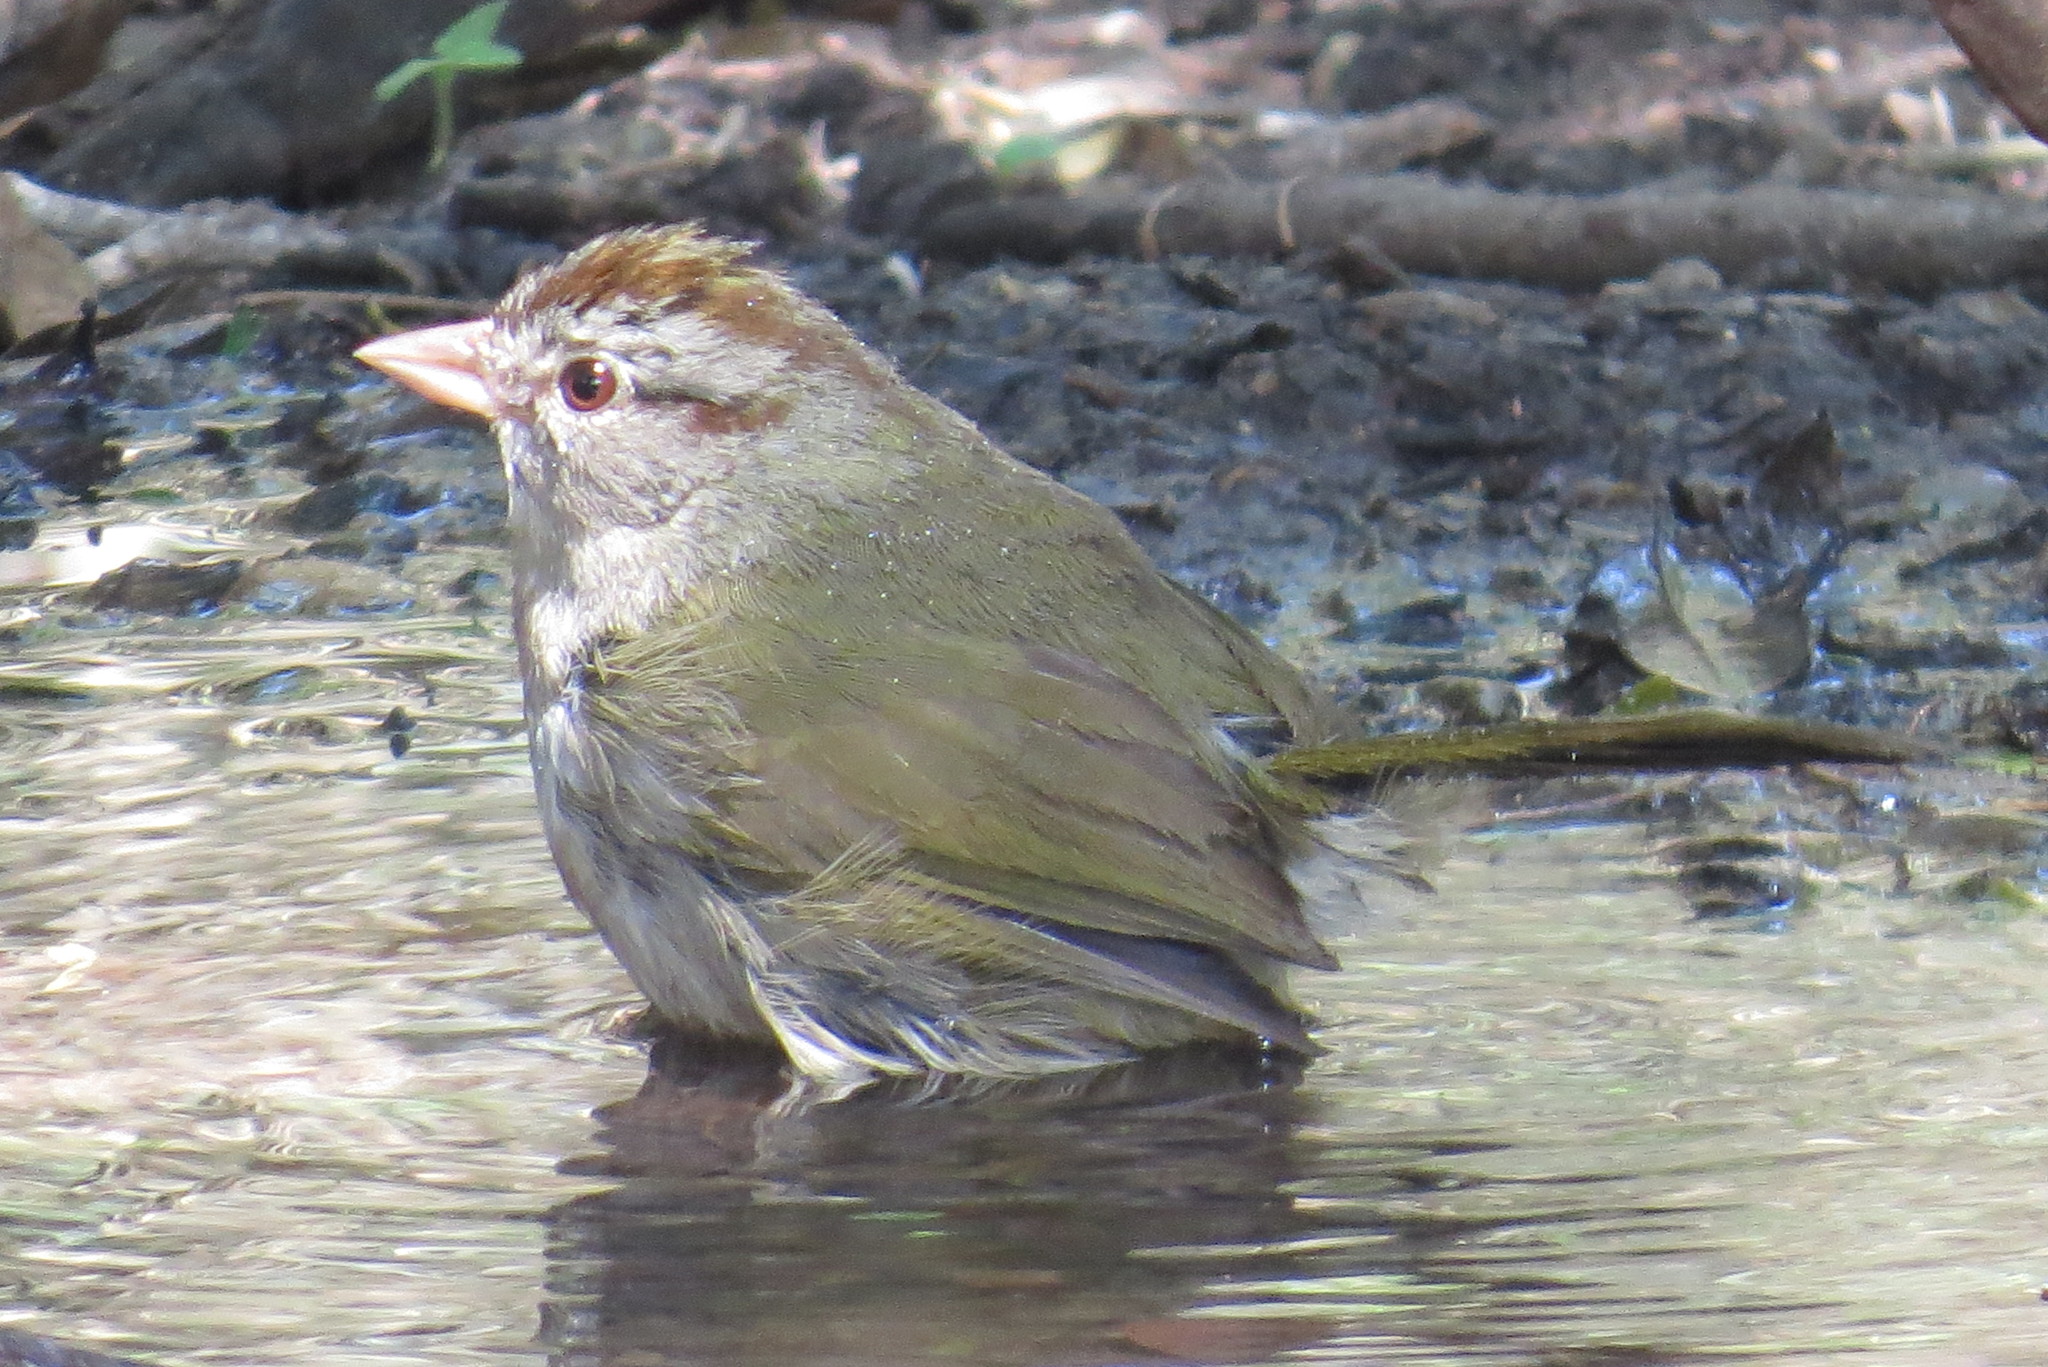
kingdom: Animalia
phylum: Chordata
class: Aves
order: Passeriformes
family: Passerellidae
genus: Arremonops
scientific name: Arremonops rufivirgatus
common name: Olive sparrow
